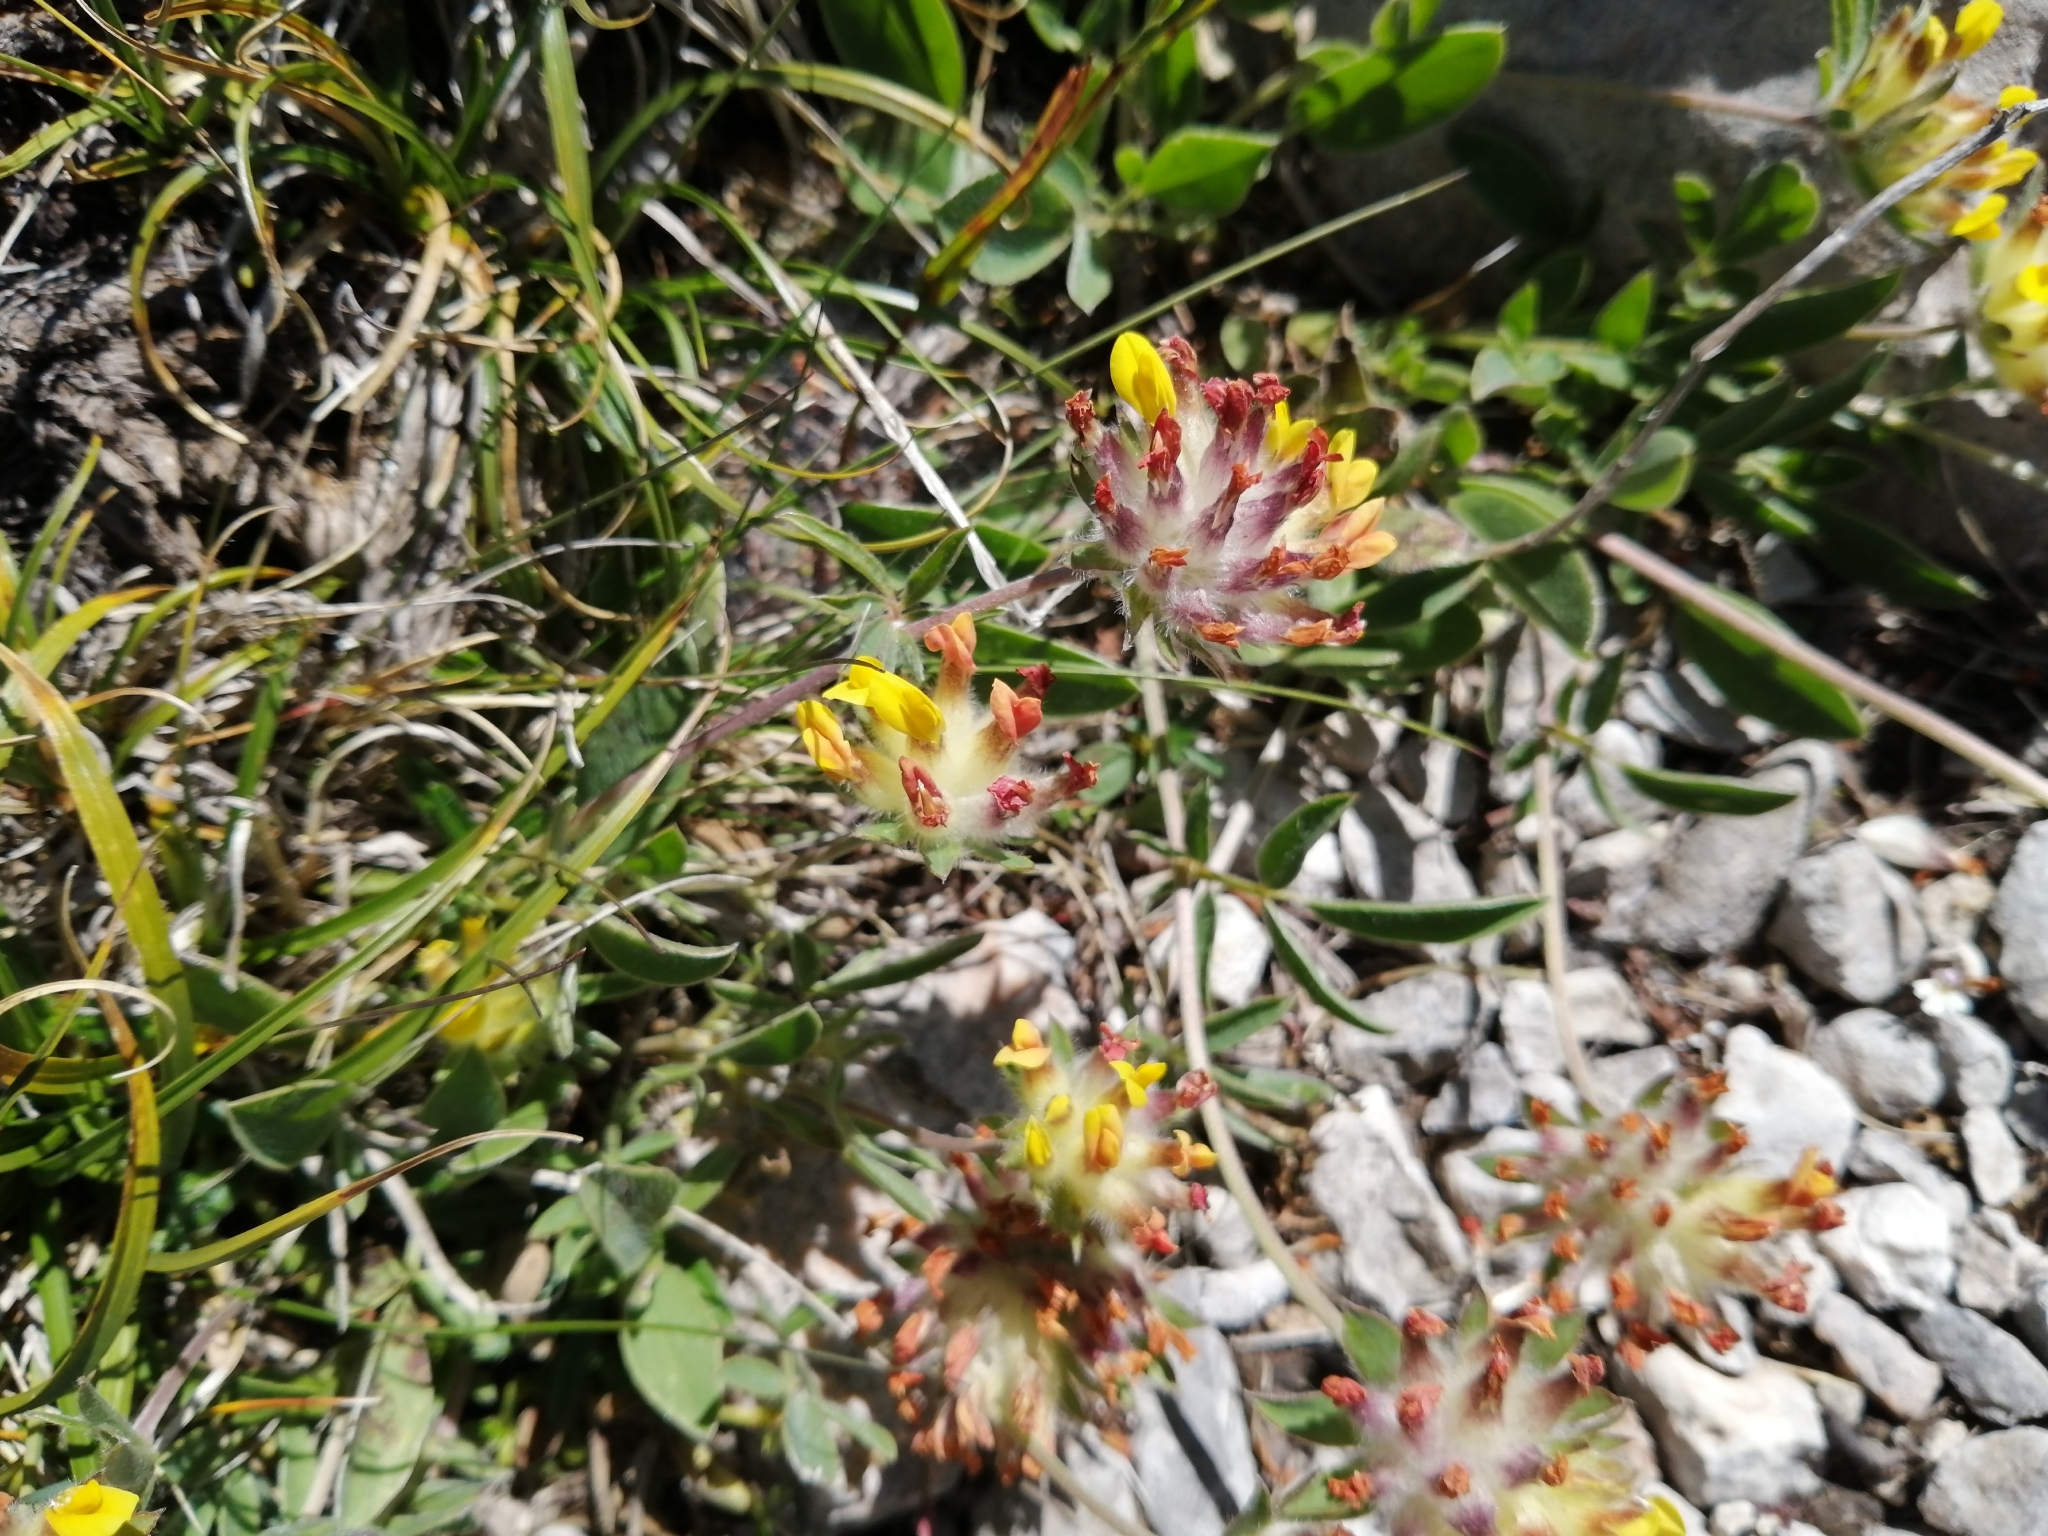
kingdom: Plantae
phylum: Tracheophyta
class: Magnoliopsida
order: Fabales
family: Fabaceae
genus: Anthyllis
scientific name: Anthyllis vulneraria
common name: Kidney vetch
